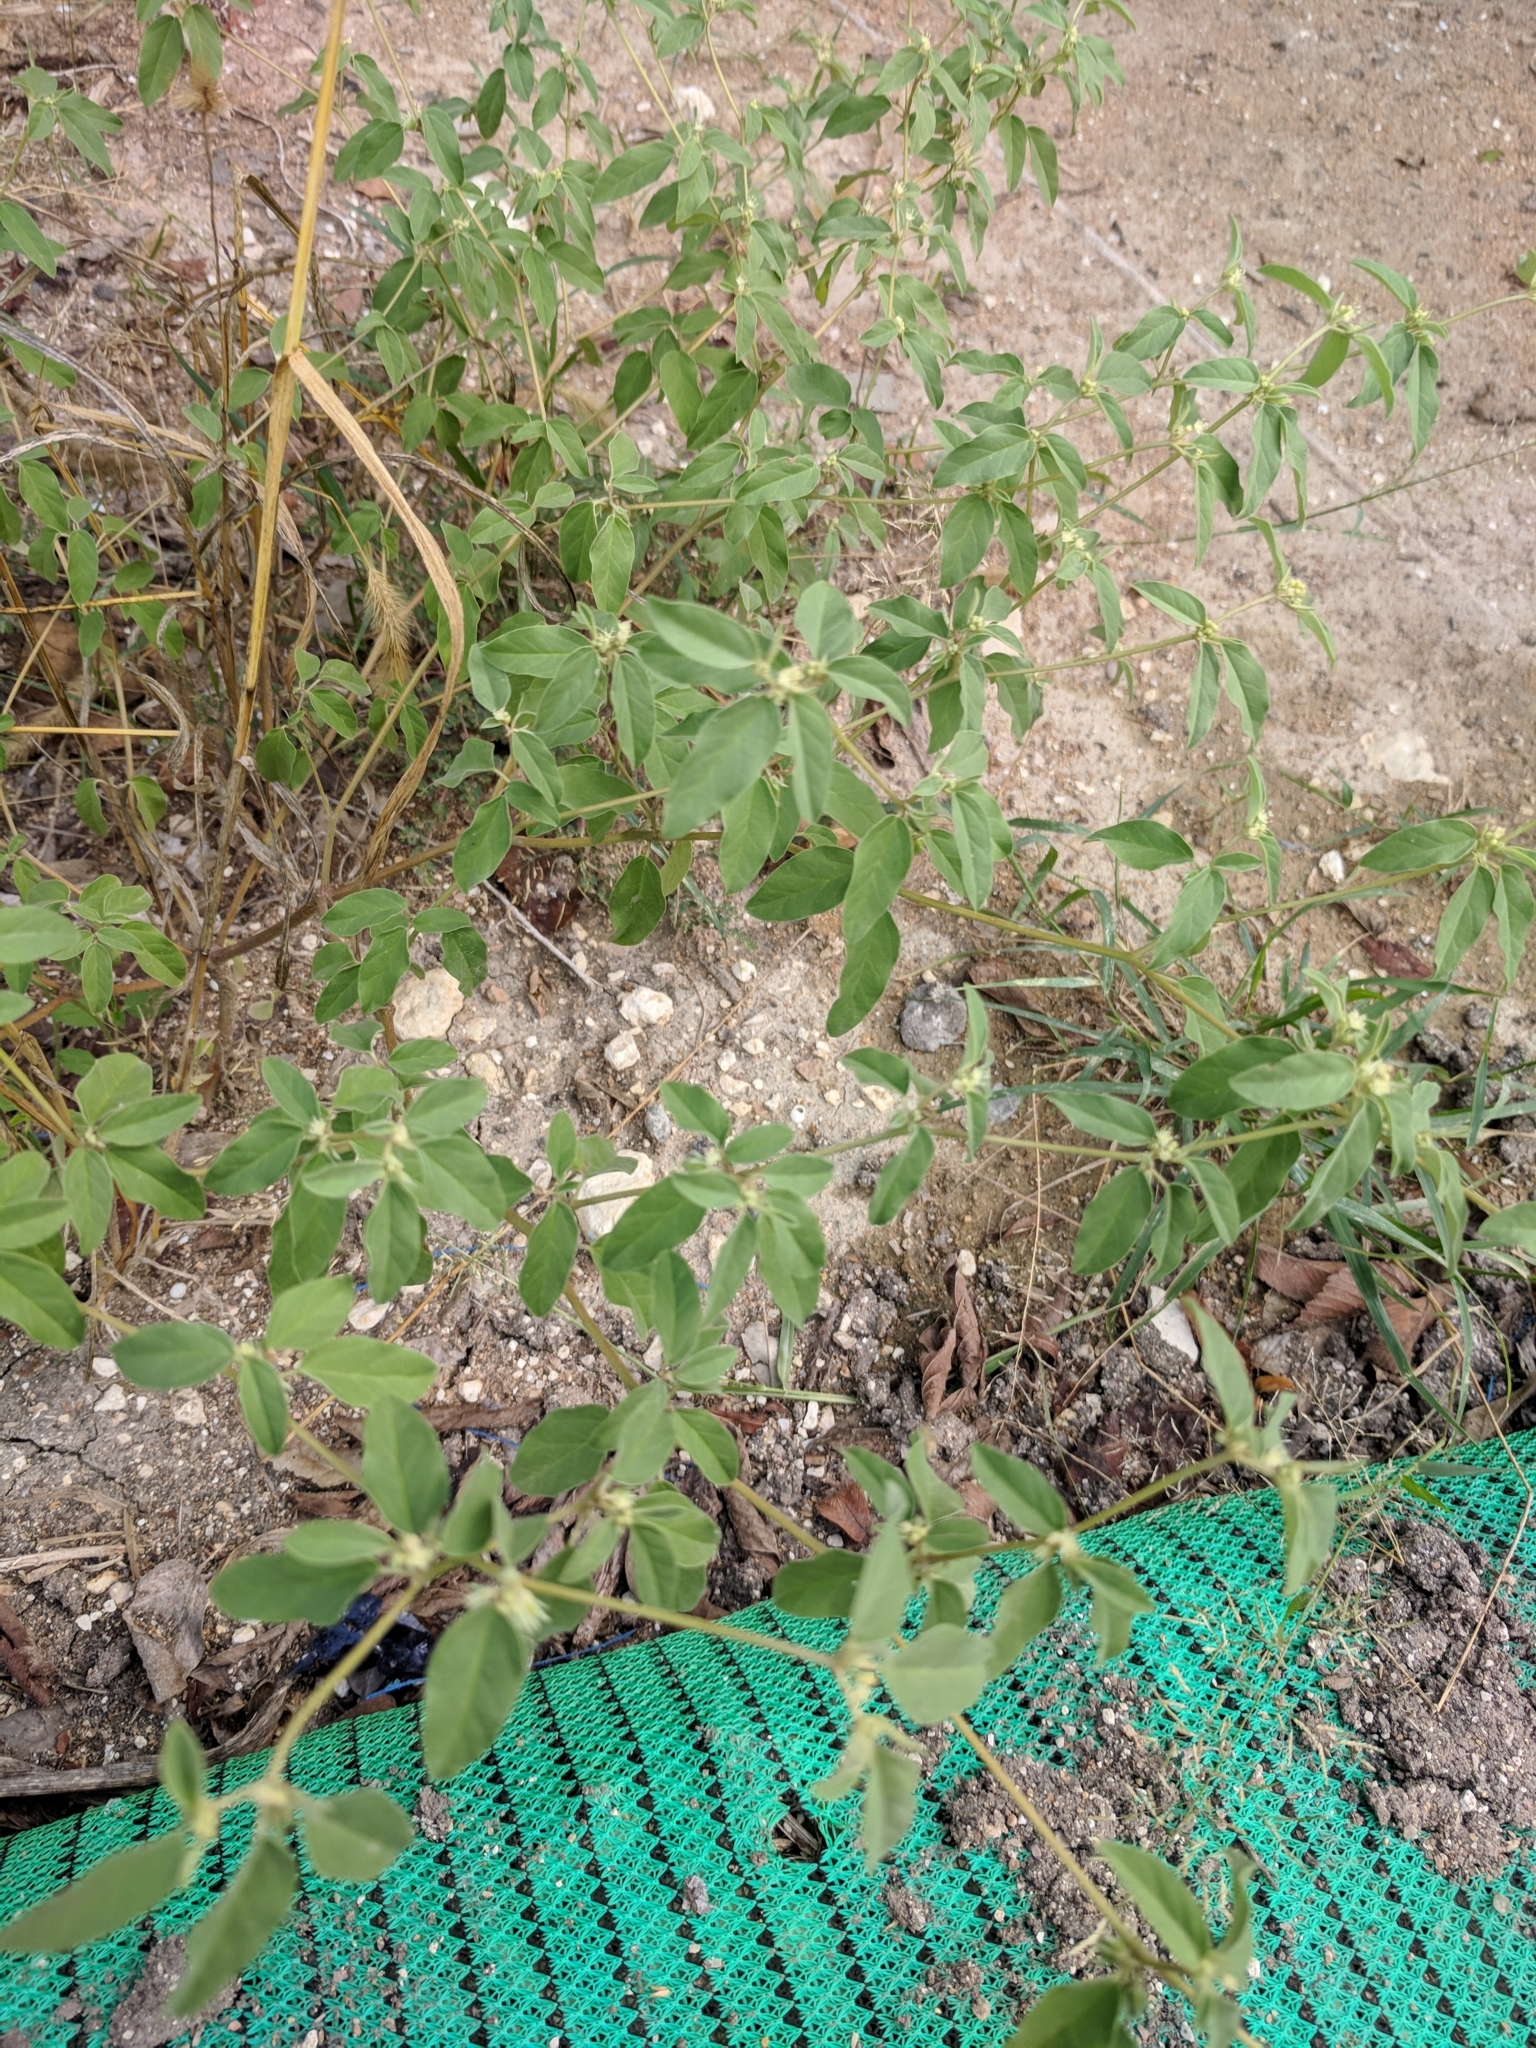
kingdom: Plantae
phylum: Tracheophyta
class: Magnoliopsida
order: Malpighiales
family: Euphorbiaceae
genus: Croton
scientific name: Croton monanthogynus
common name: One-seed croton
